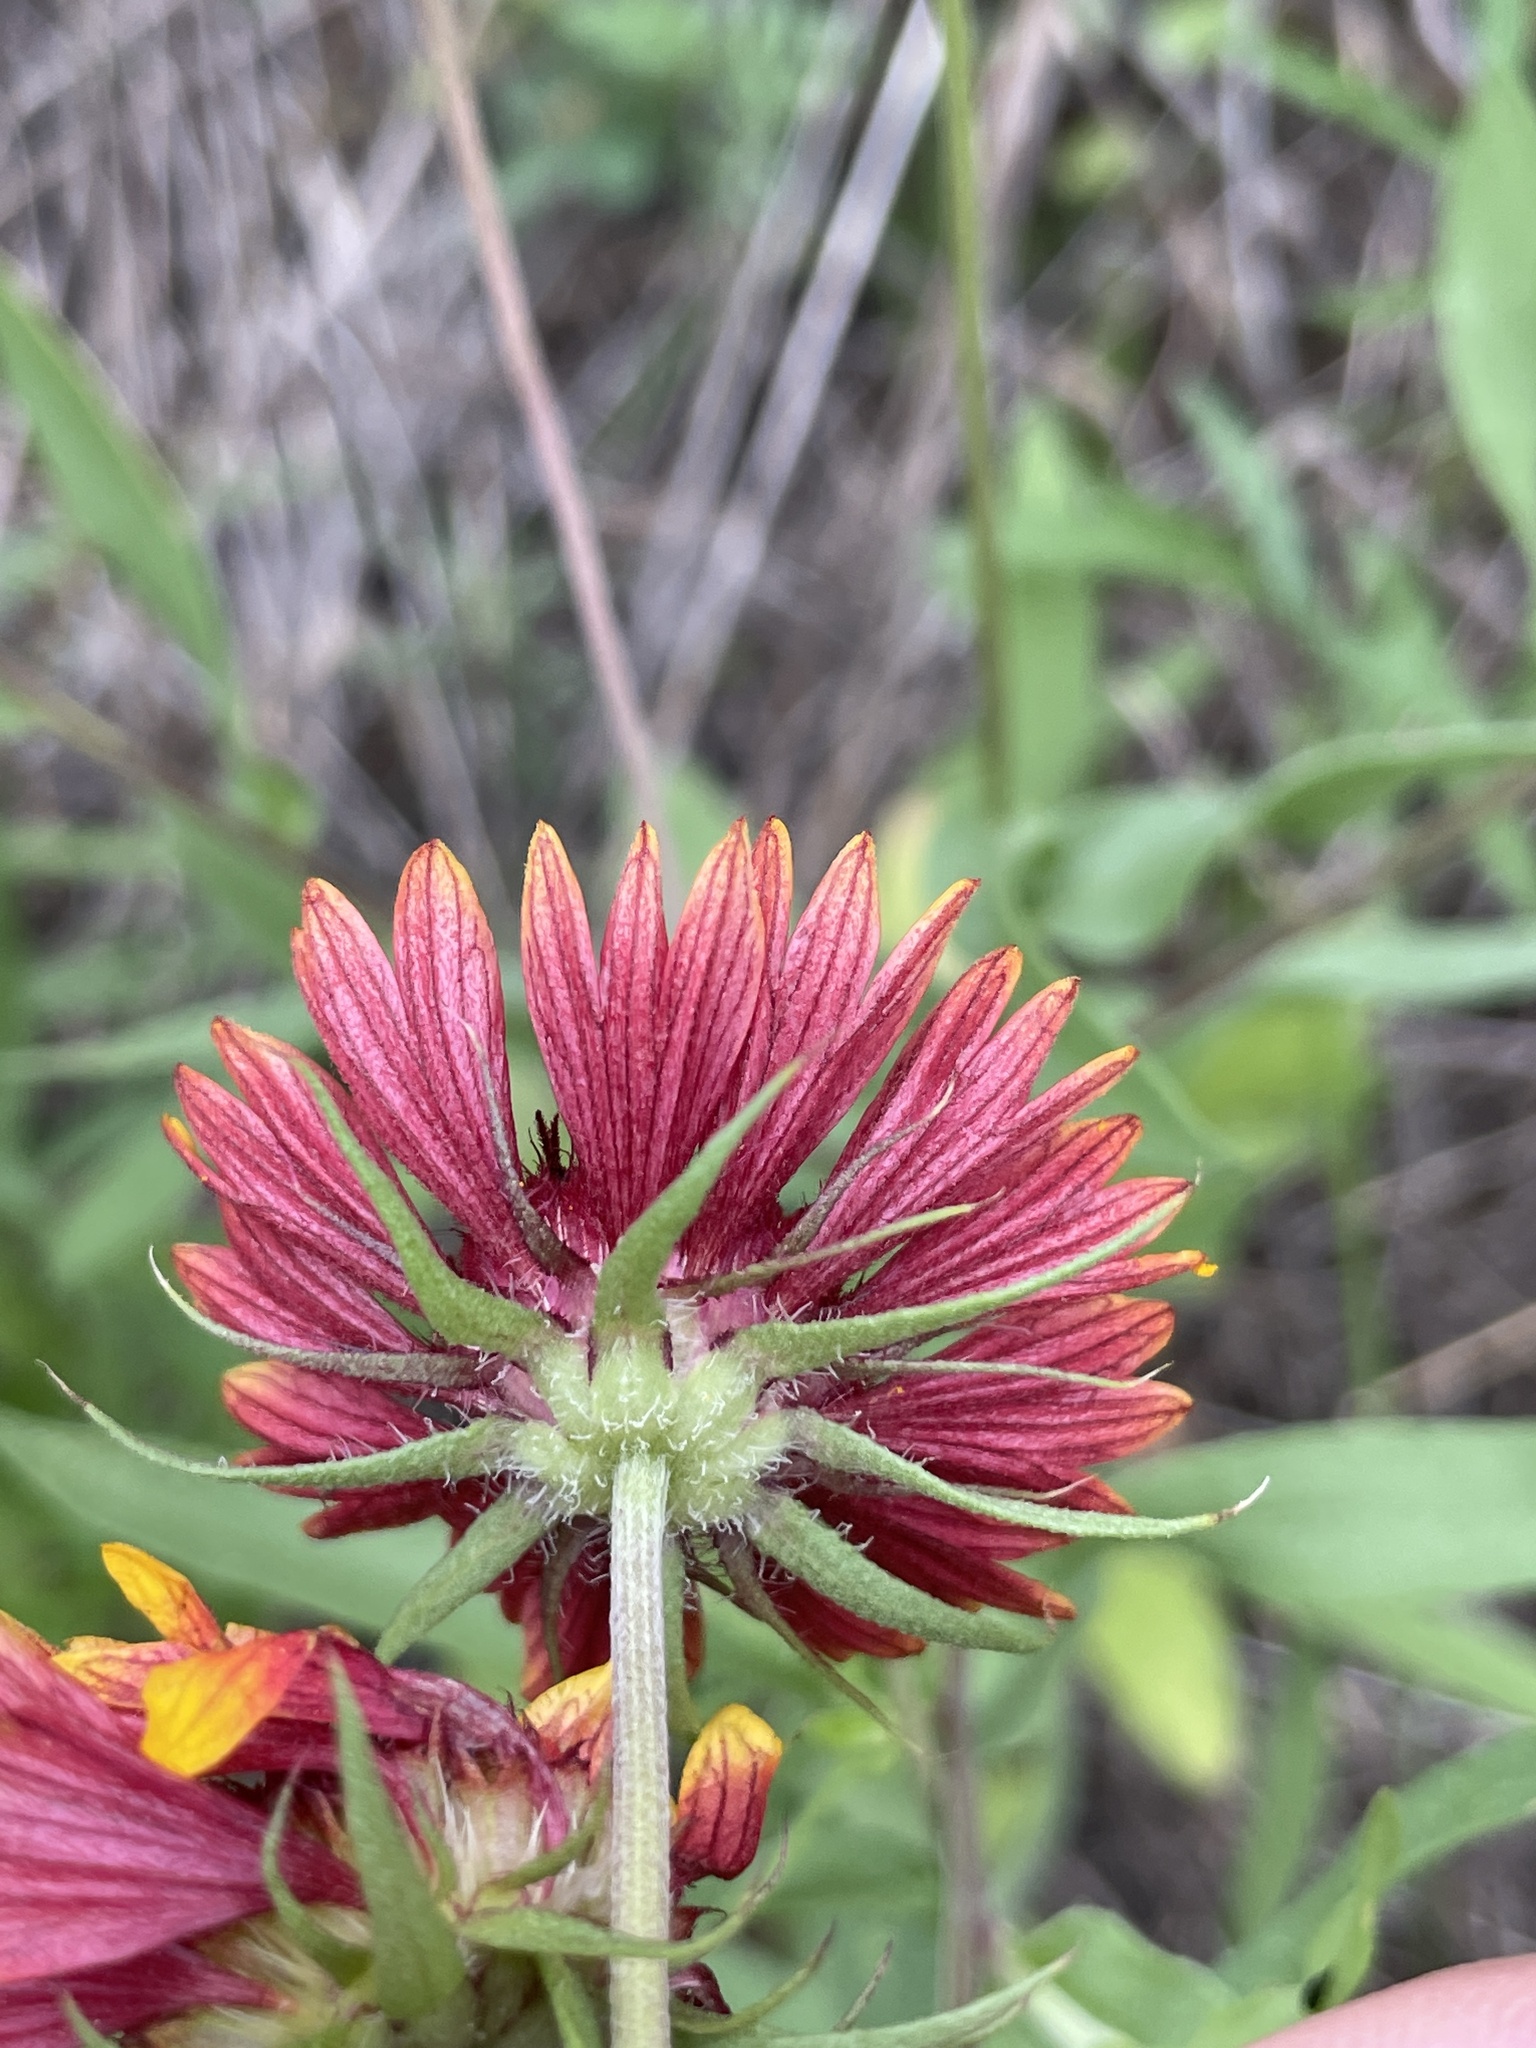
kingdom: Plantae
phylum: Tracheophyta
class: Magnoliopsida
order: Asterales
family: Asteraceae
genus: Gaillardia
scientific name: Gaillardia pulchella
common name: Firewheel
